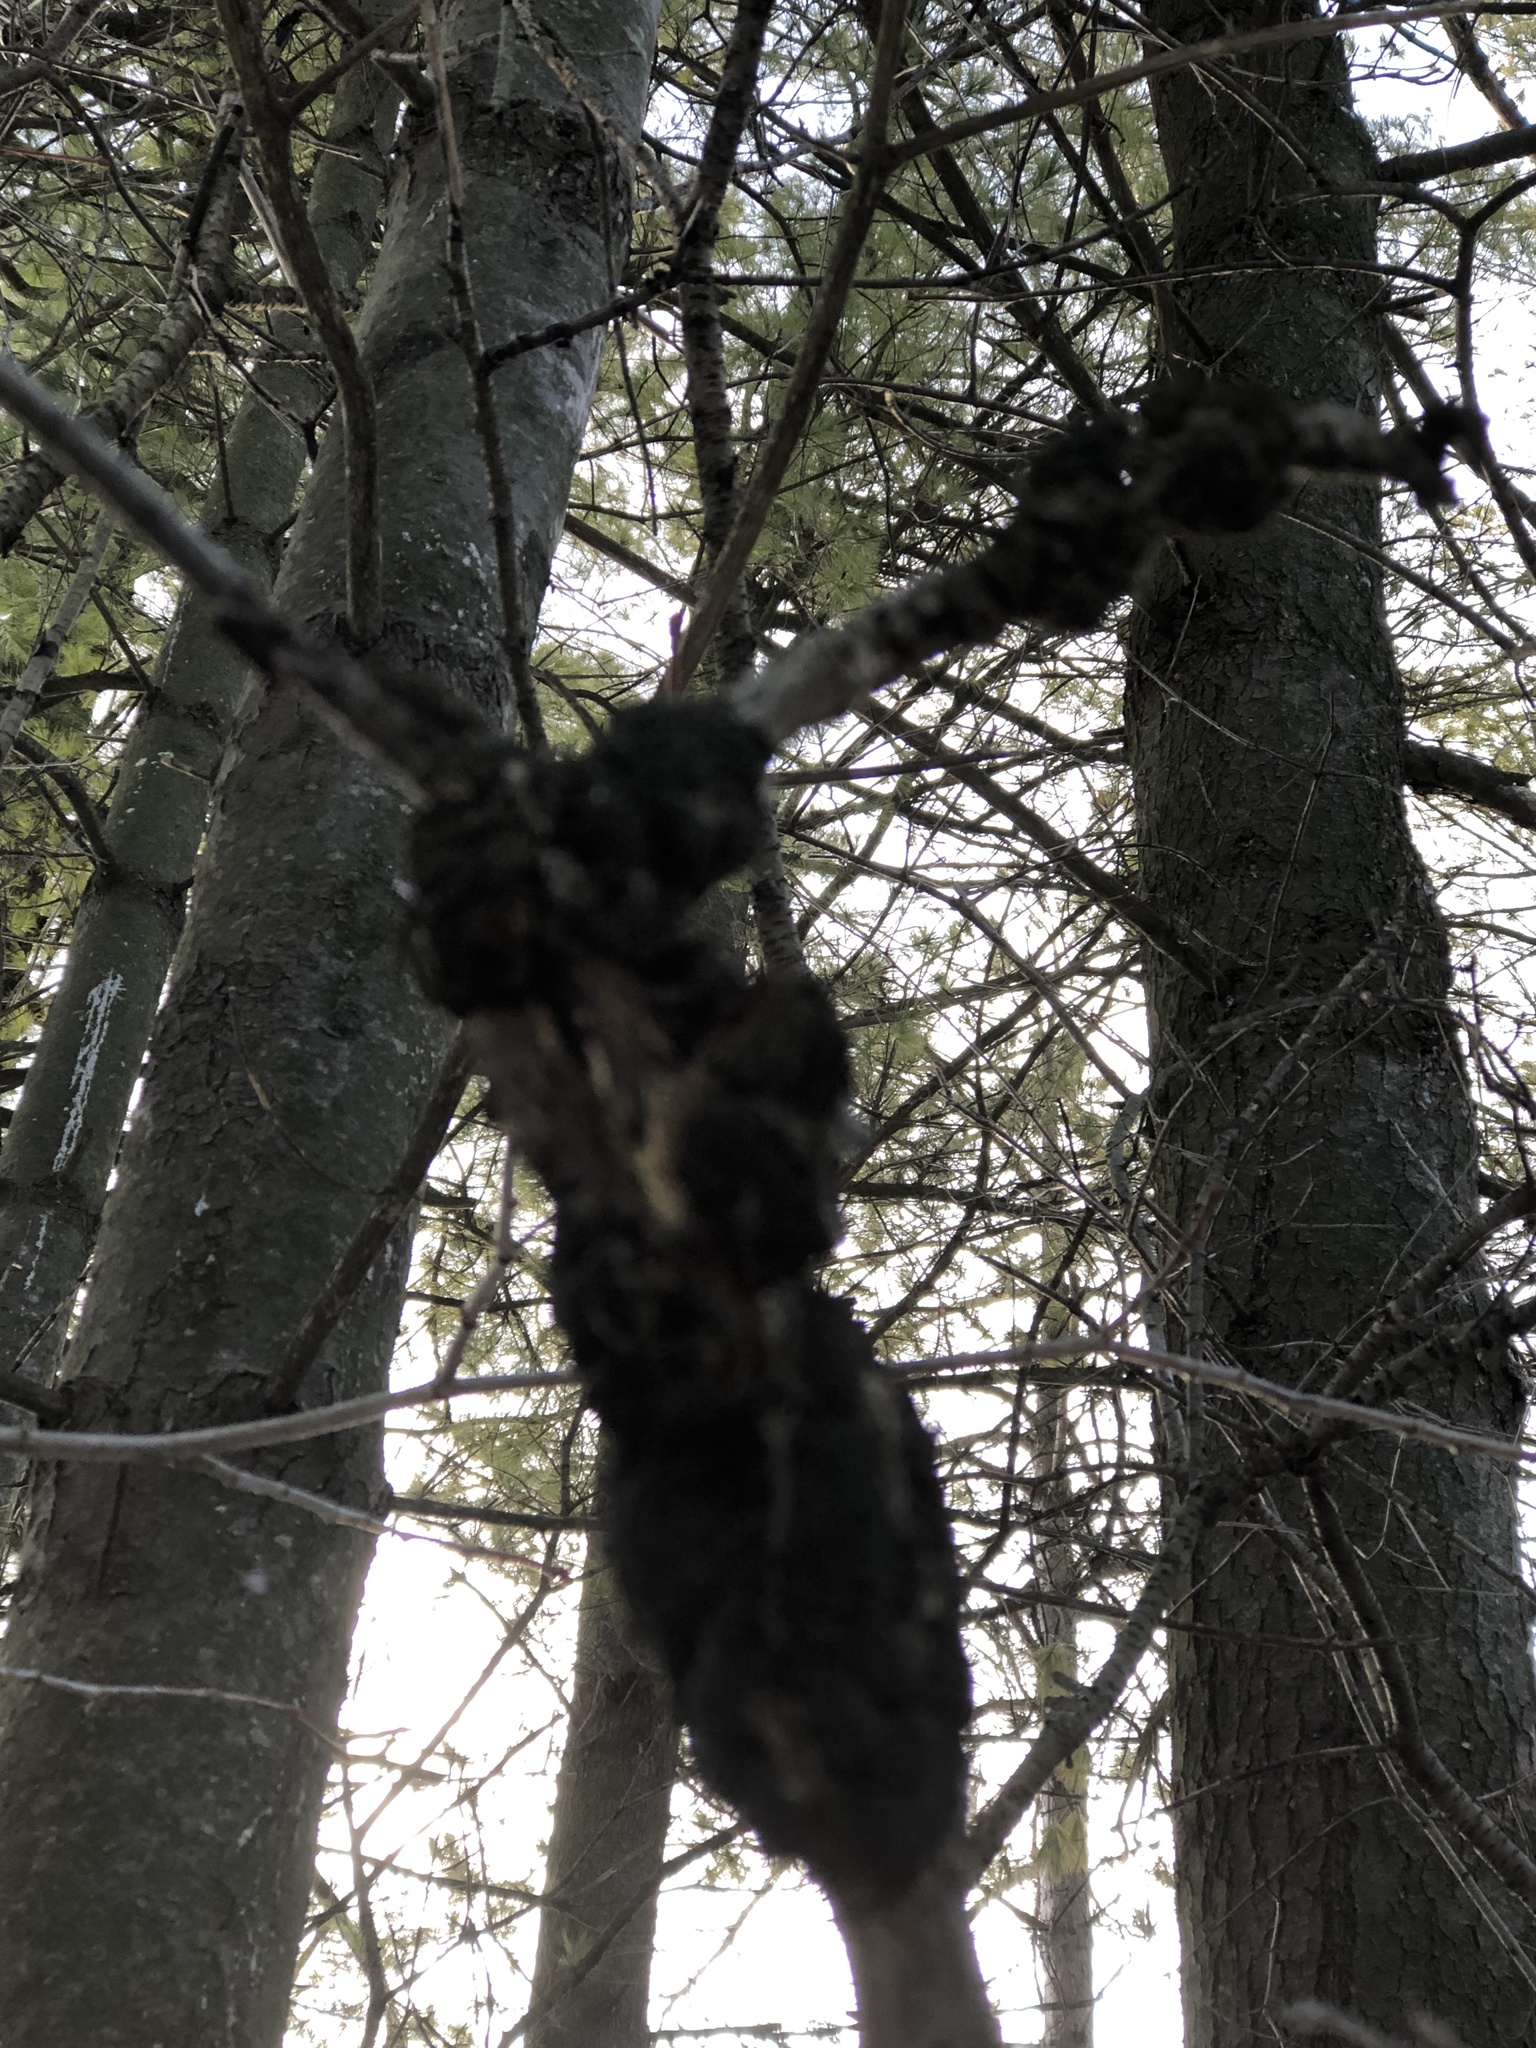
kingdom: Fungi
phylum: Ascomycota
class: Dothideomycetes
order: Venturiales
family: Venturiaceae
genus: Apiosporina
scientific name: Apiosporina morbosa
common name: Black knot
